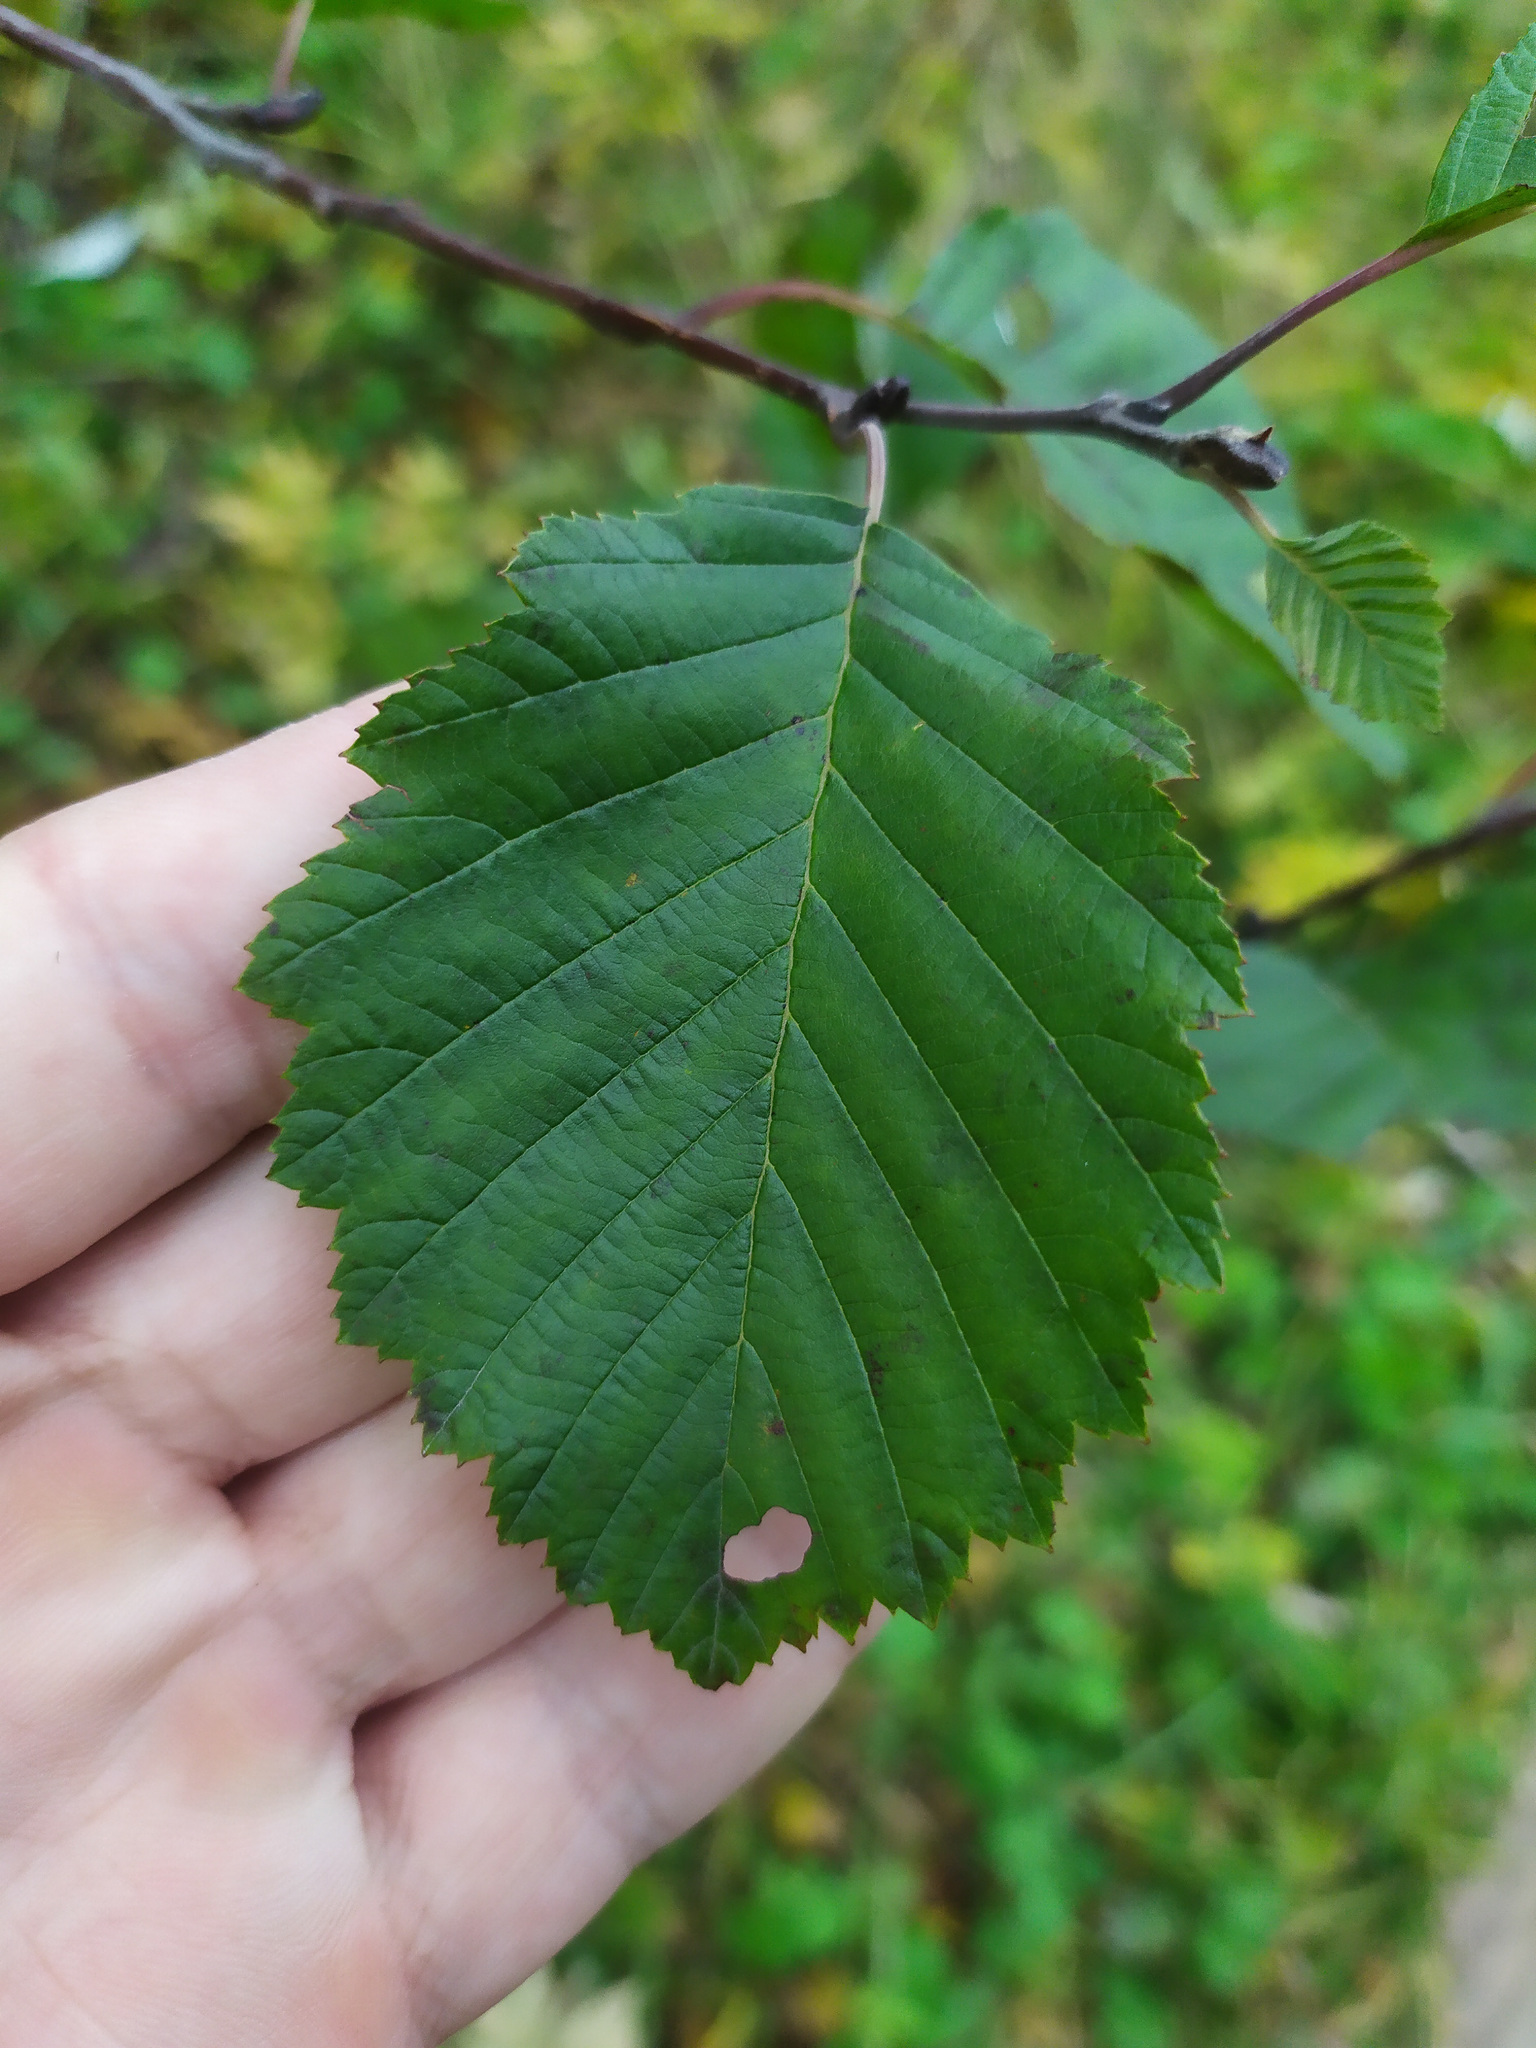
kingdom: Plantae
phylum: Tracheophyta
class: Magnoliopsida
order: Fagales
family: Betulaceae
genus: Alnus
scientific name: Alnus incana
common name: Grey alder
